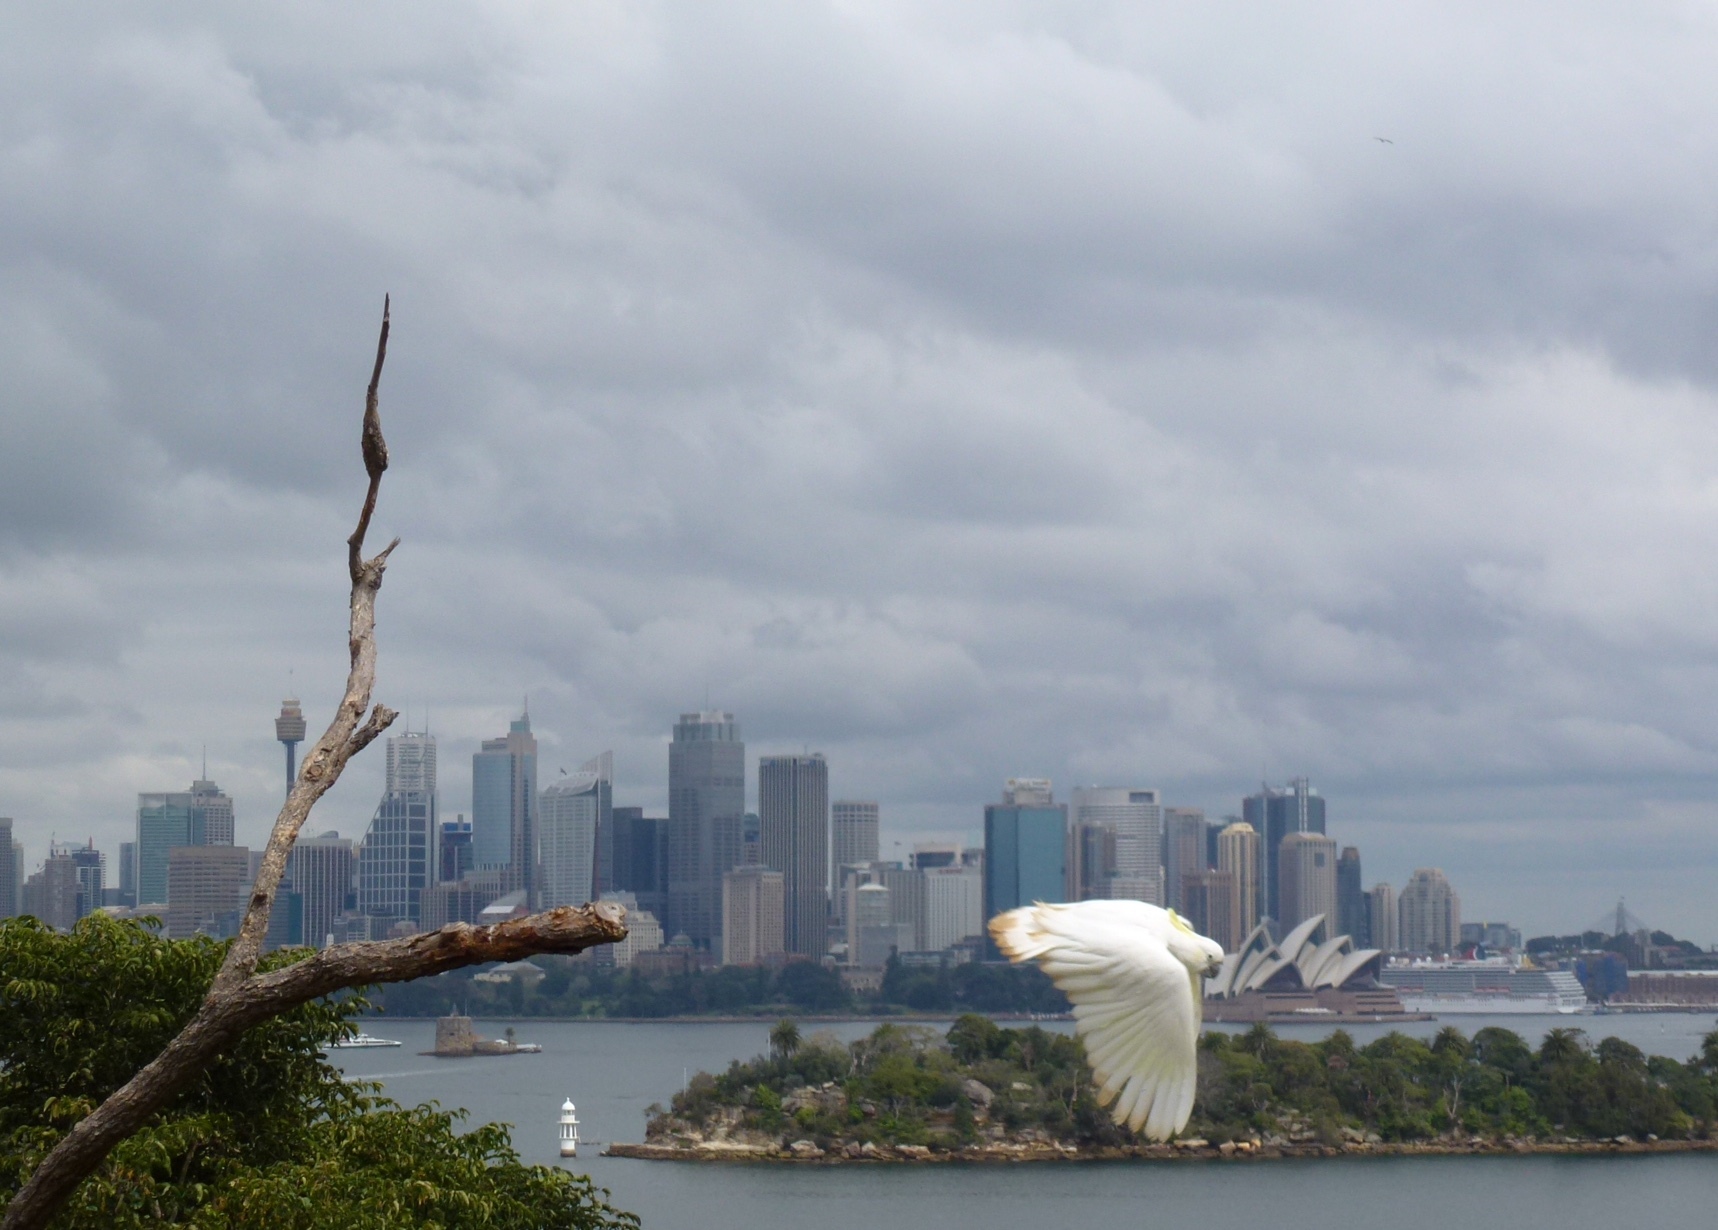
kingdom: Animalia
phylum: Chordata
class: Aves
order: Psittaciformes
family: Psittacidae
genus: Cacatua
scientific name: Cacatua galerita
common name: Sulphur-crested cockatoo
